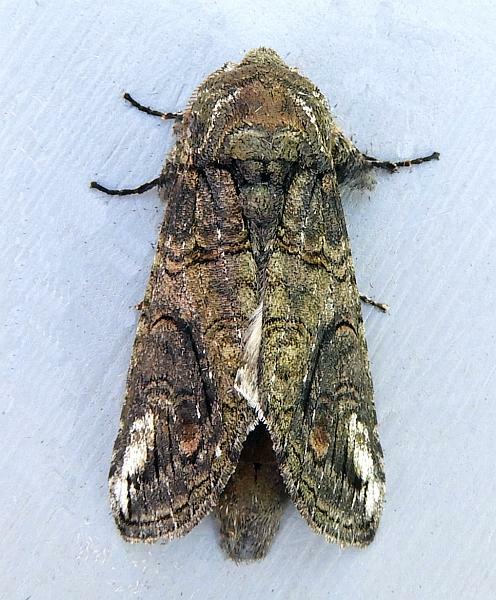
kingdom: Animalia
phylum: Arthropoda
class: Insecta
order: Lepidoptera
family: Notodontidae
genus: Heterocampa
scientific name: Heterocampa obliqua
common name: Oblique heterocampa
